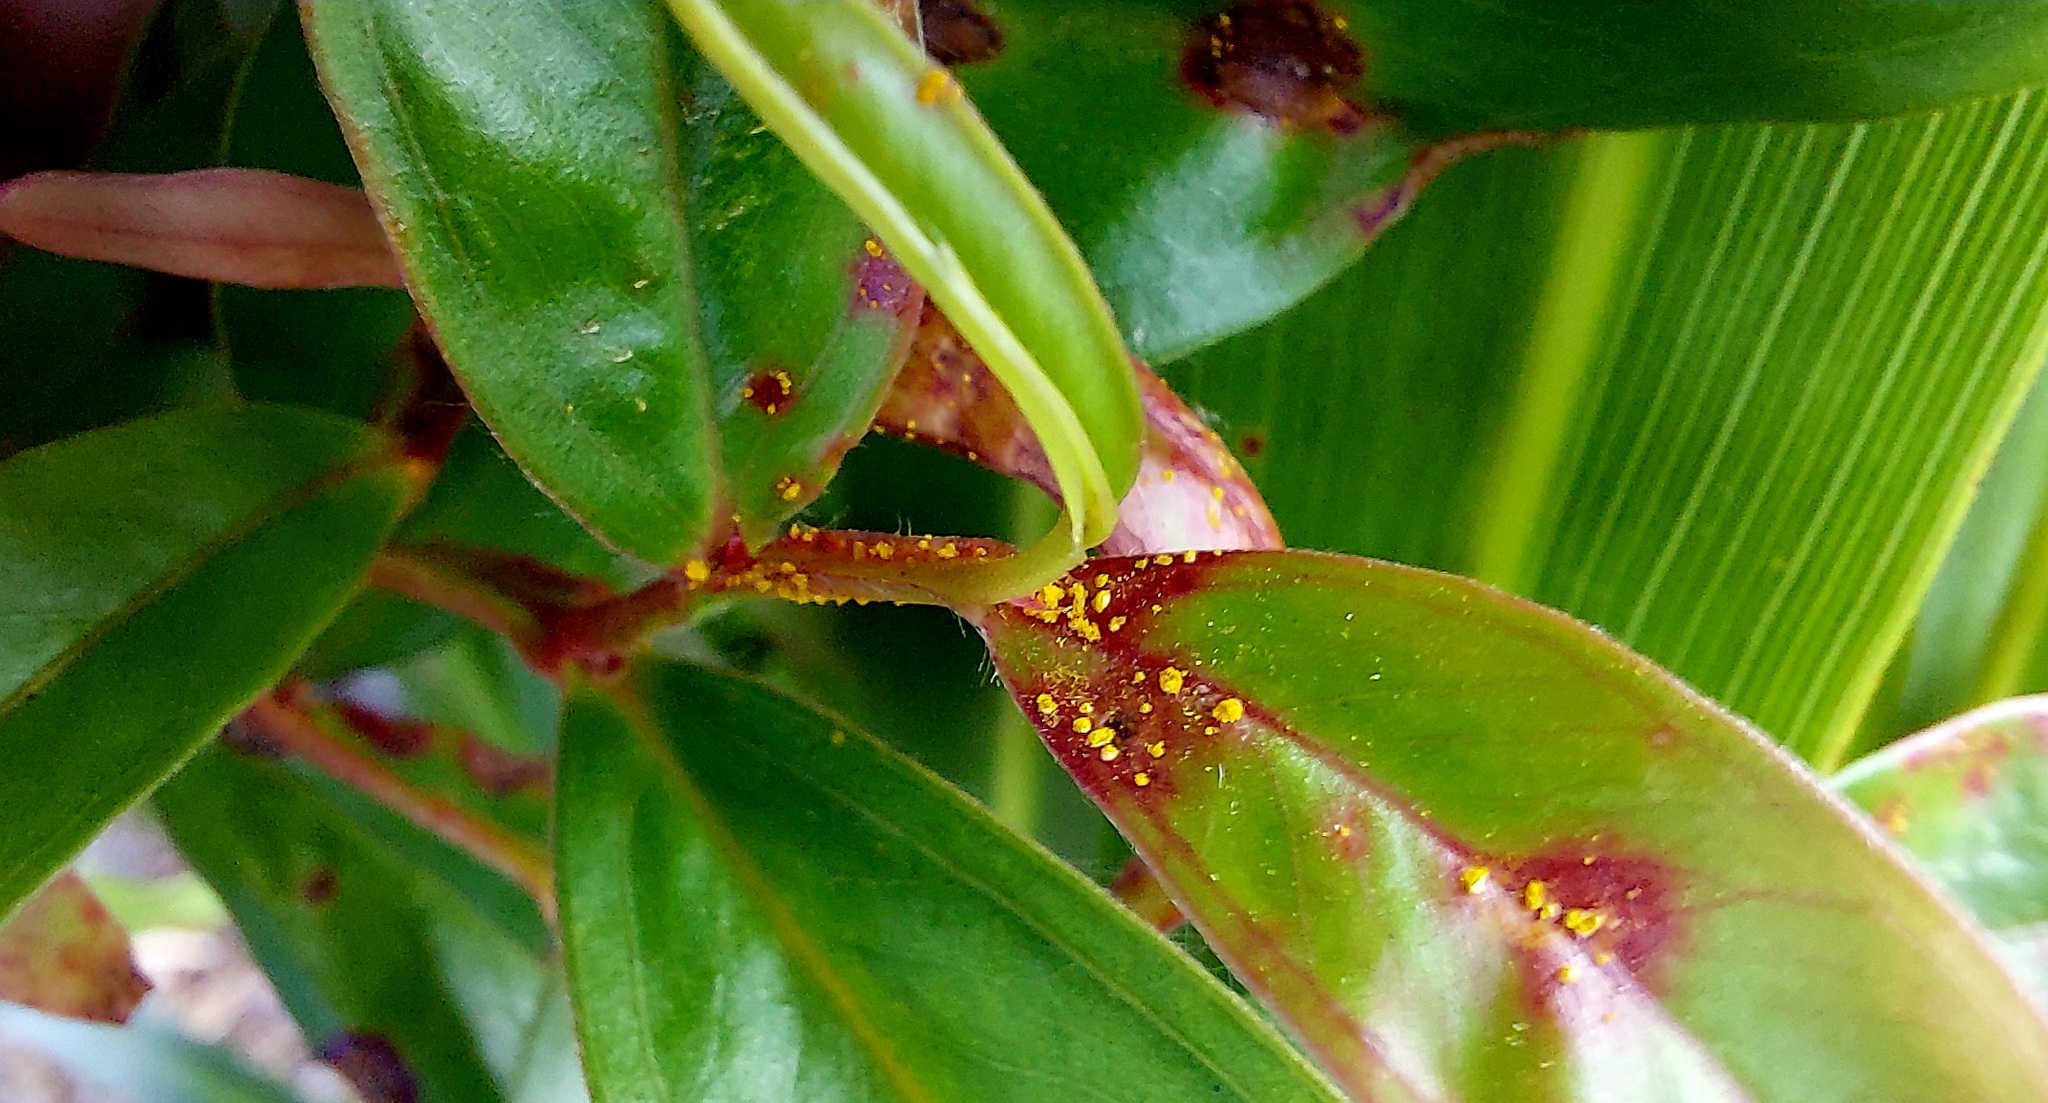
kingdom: Fungi
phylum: Basidiomycota
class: Pucciniomycetes
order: Pucciniales
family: Sphaerophragmiaceae
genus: Austropuccinia
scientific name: Austropuccinia psidii
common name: Myrtle rust
